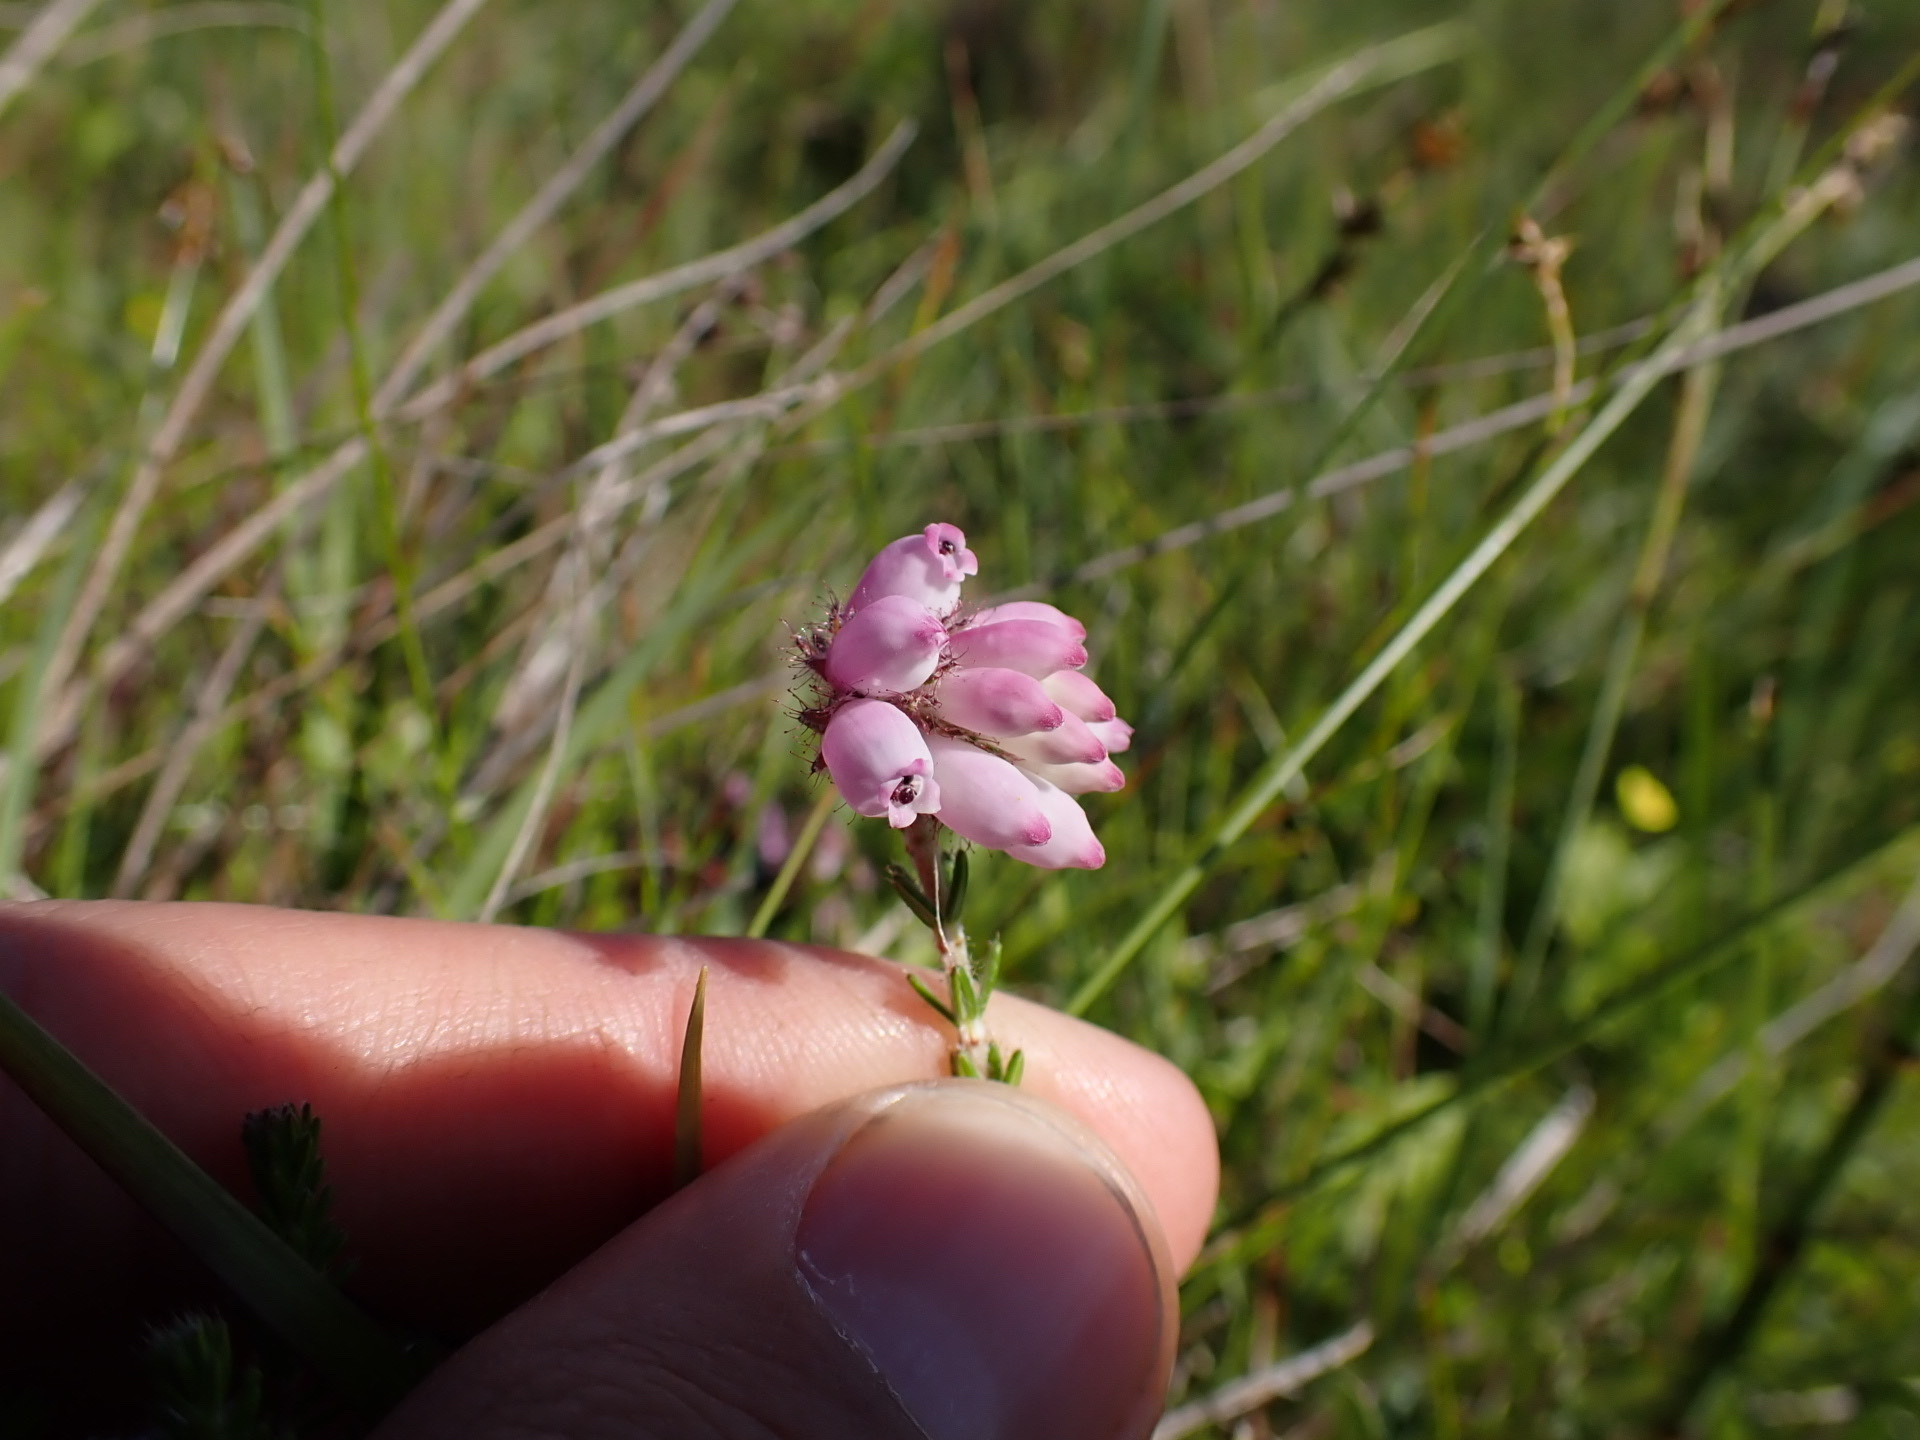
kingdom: Plantae
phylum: Tracheophyta
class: Magnoliopsida
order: Ericales
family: Ericaceae
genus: Erica
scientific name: Erica tetralix
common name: Cross-leaved heath
